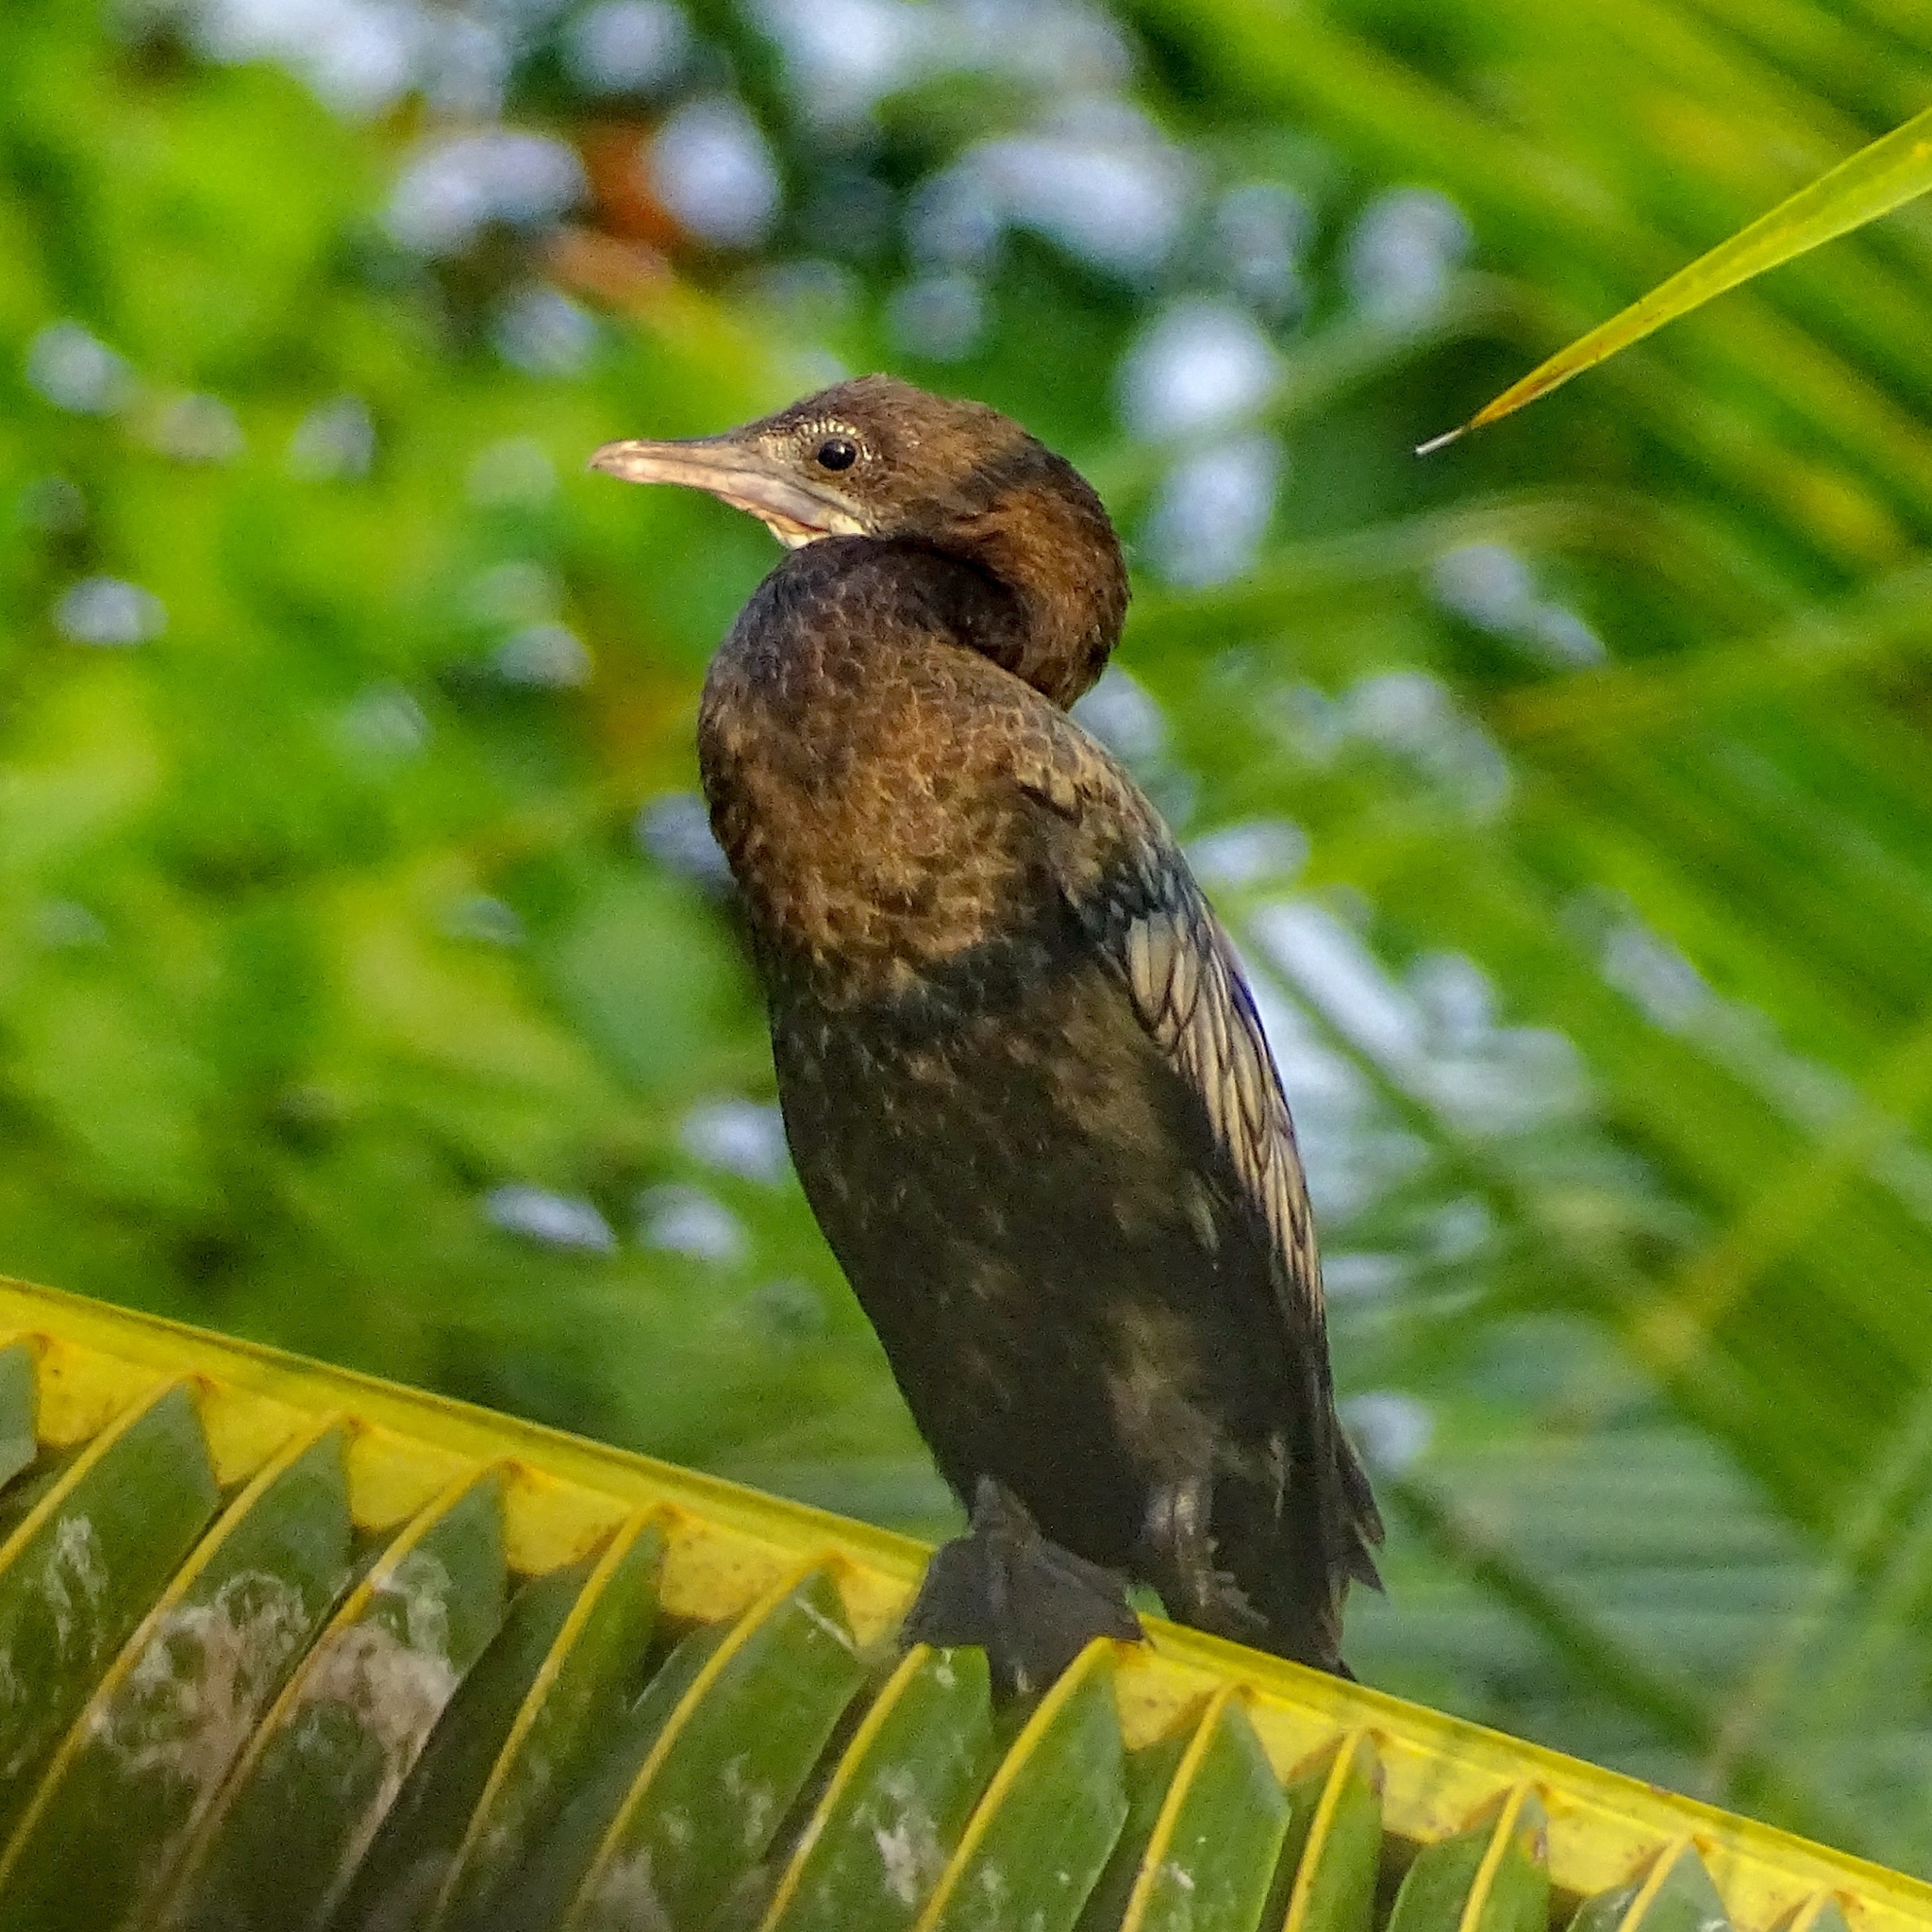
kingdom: Animalia
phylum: Chordata
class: Aves
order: Suliformes
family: Phalacrocoracidae
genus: Microcarbo
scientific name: Microcarbo niger
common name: Little cormorant
